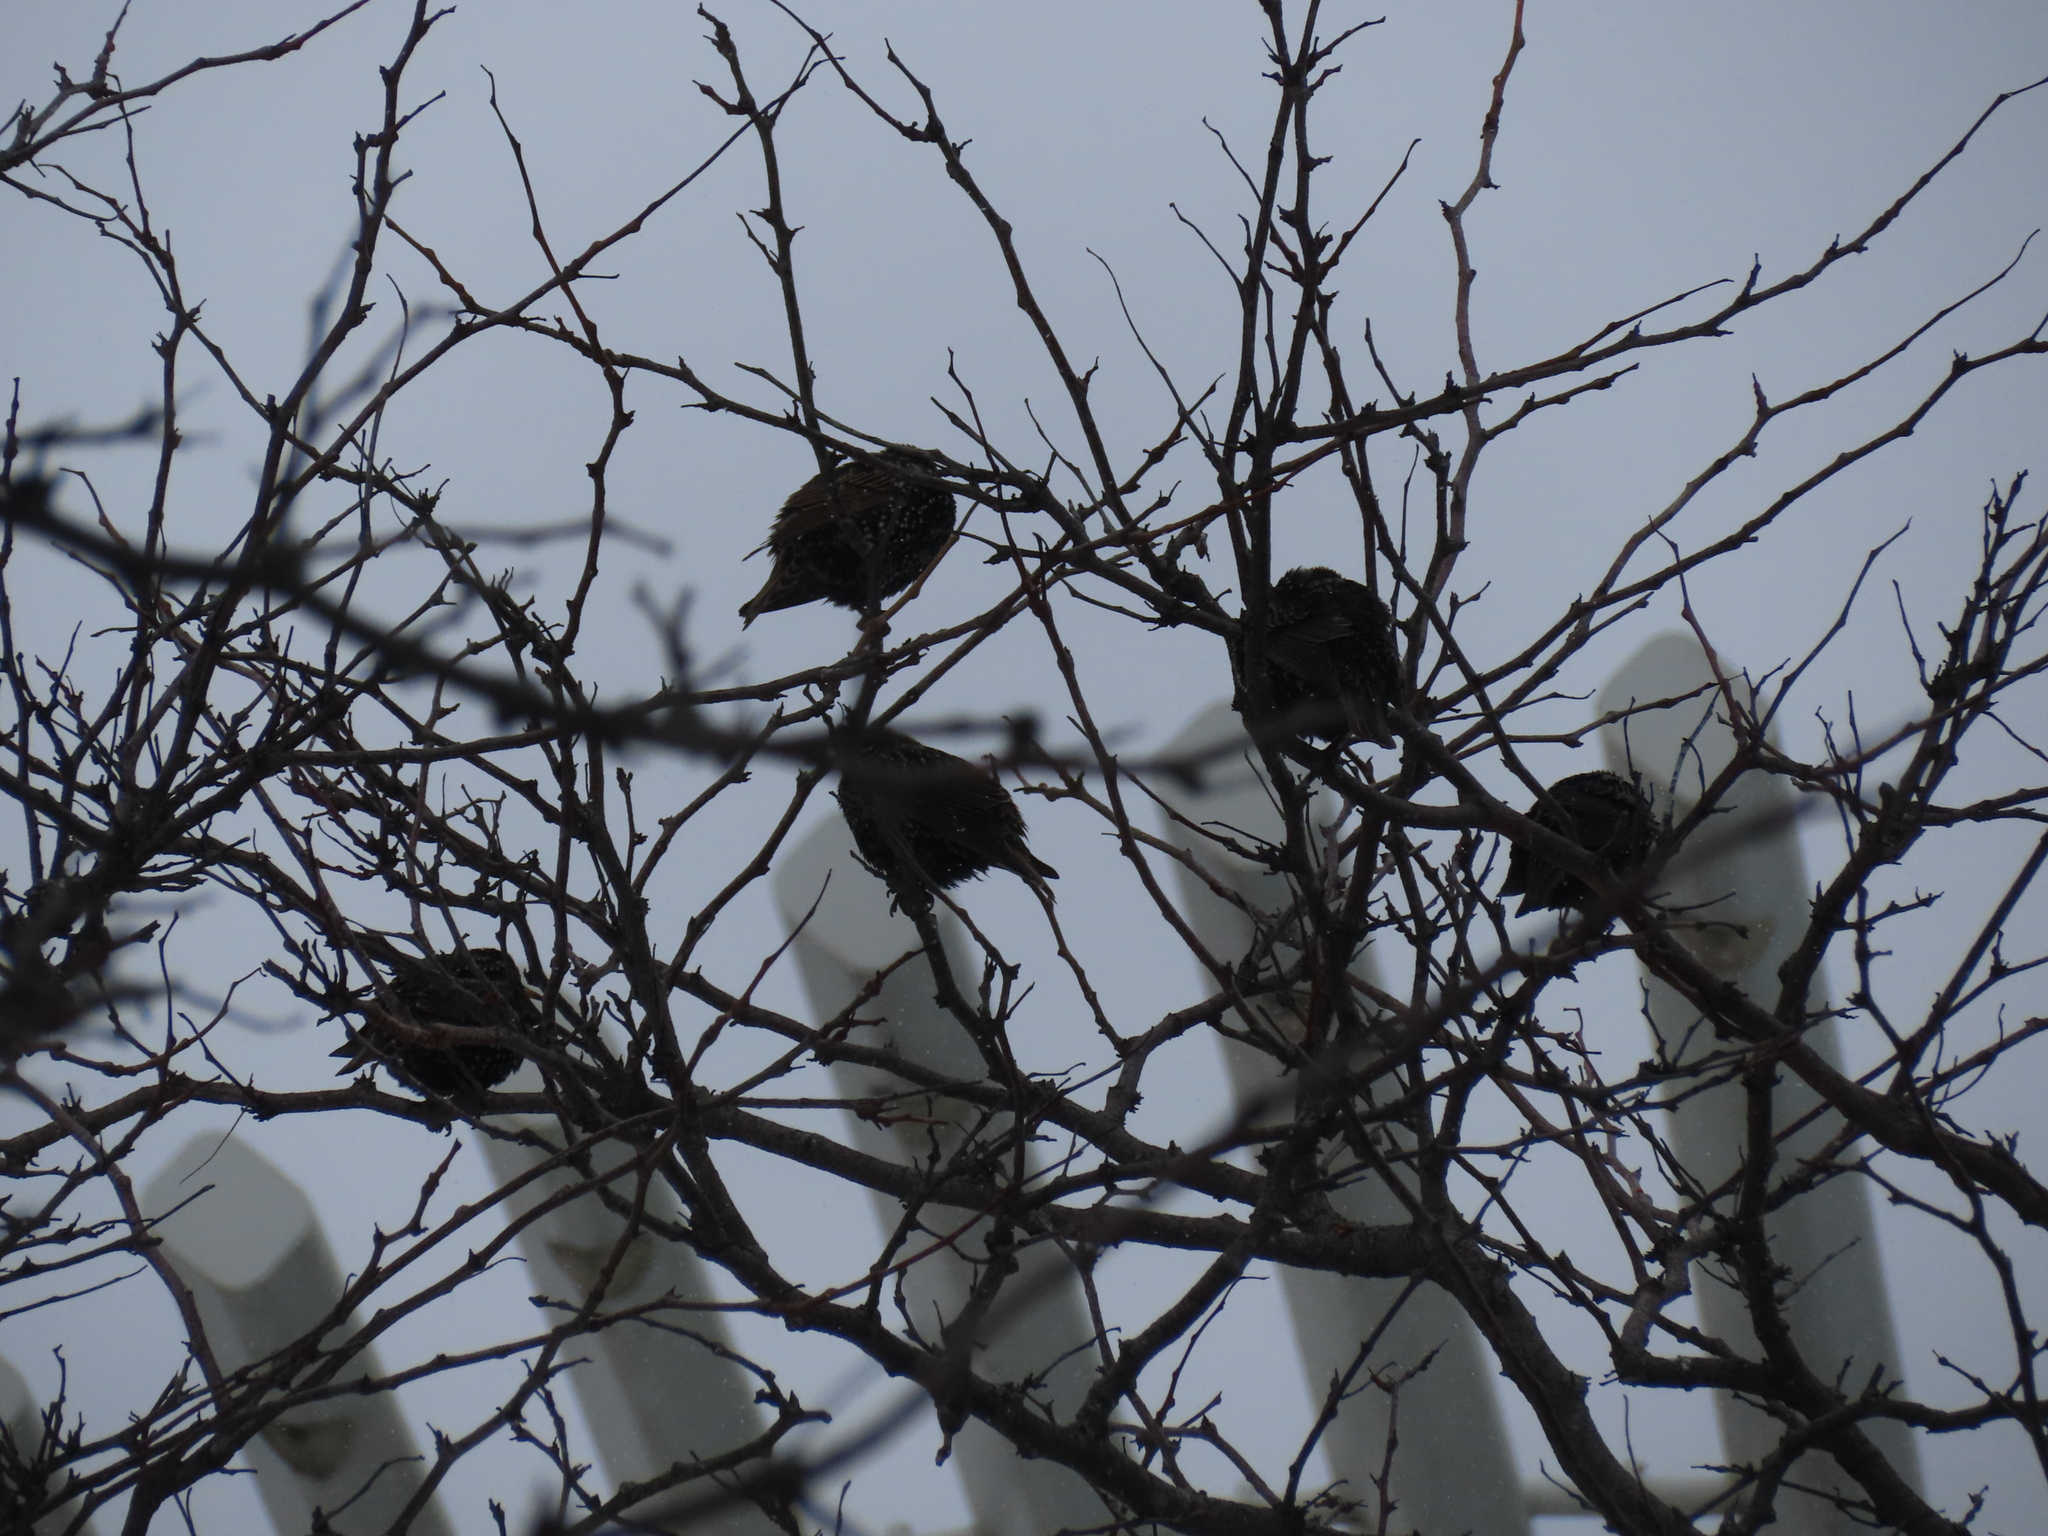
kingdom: Animalia
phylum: Chordata
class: Aves
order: Passeriformes
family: Sturnidae
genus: Sturnus
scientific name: Sturnus vulgaris
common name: Common starling
